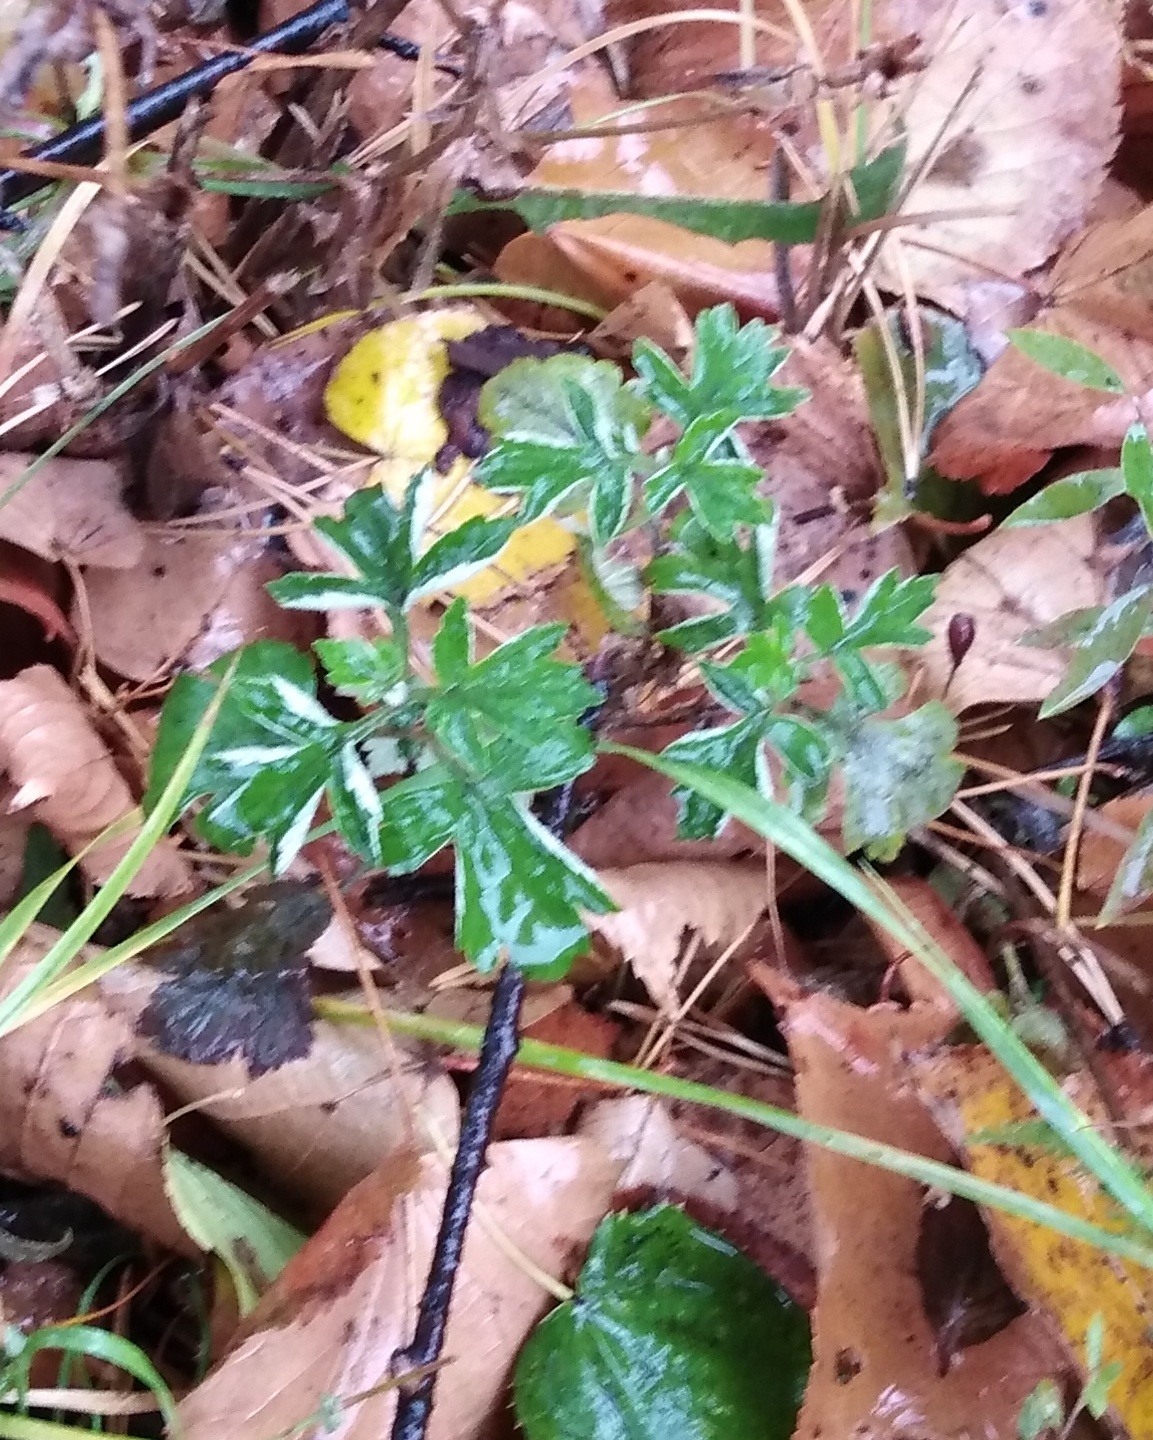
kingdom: Plantae
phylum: Tracheophyta
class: Magnoliopsida
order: Asterales
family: Asteraceae
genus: Artemisia
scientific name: Artemisia vulgaris
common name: Mugwort
